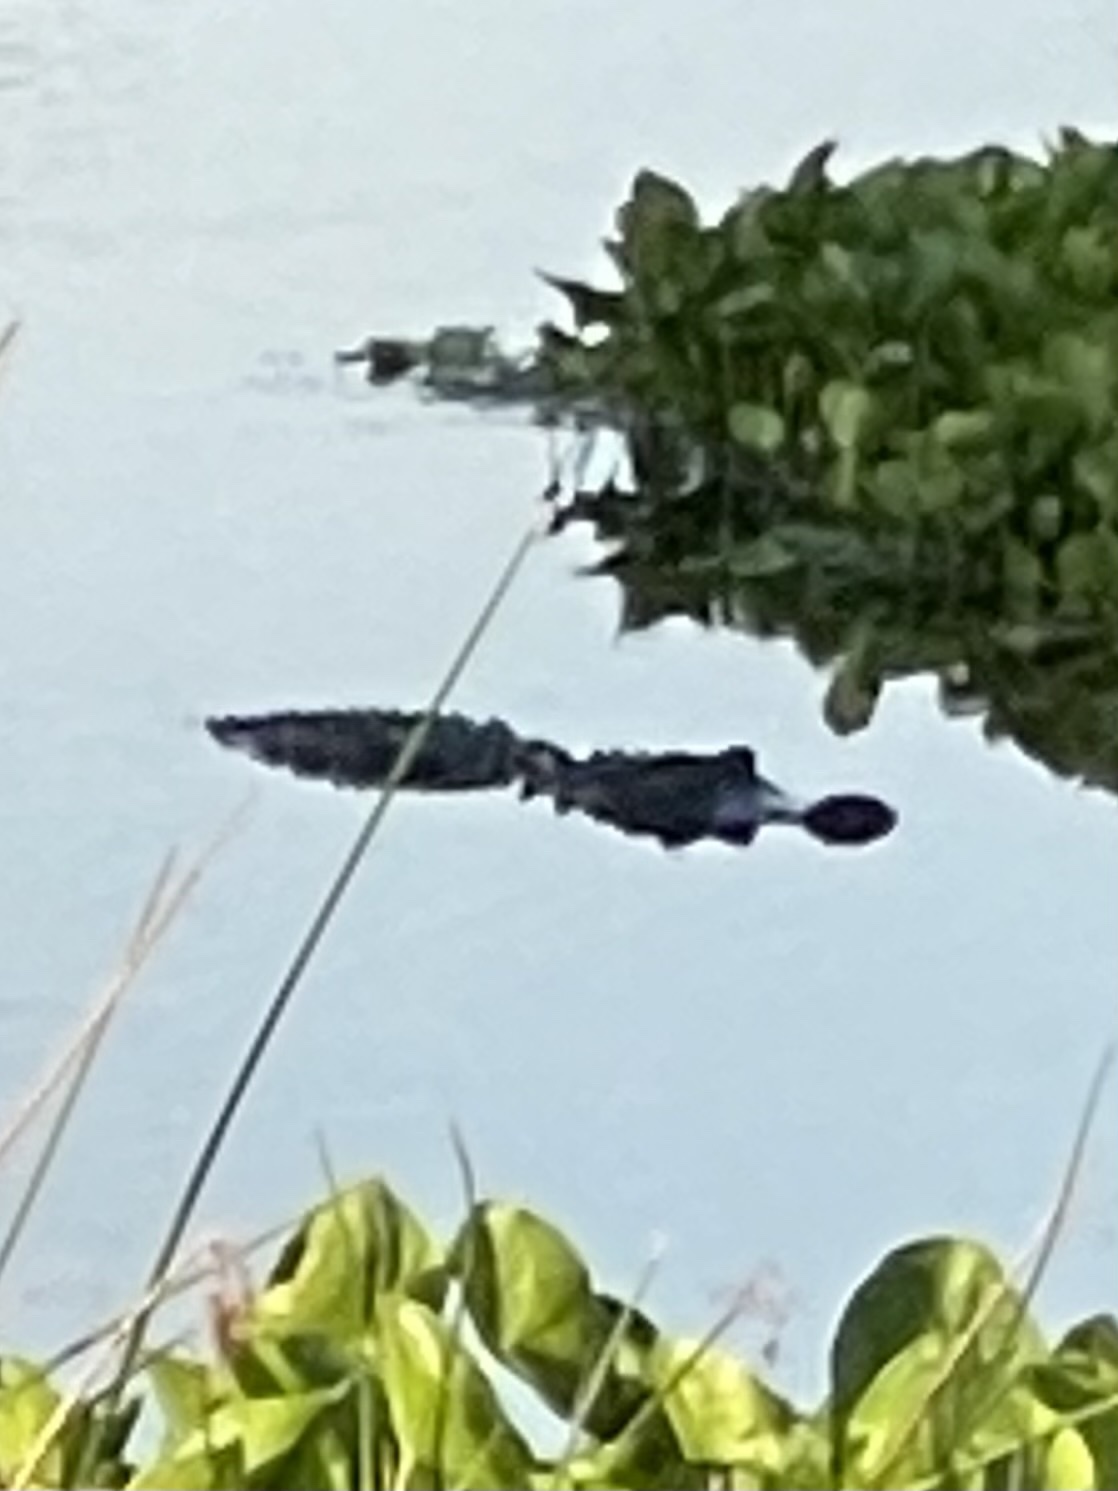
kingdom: Animalia
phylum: Chordata
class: Crocodylia
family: Alligatoridae
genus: Alligator
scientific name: Alligator mississippiensis
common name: American alligator
